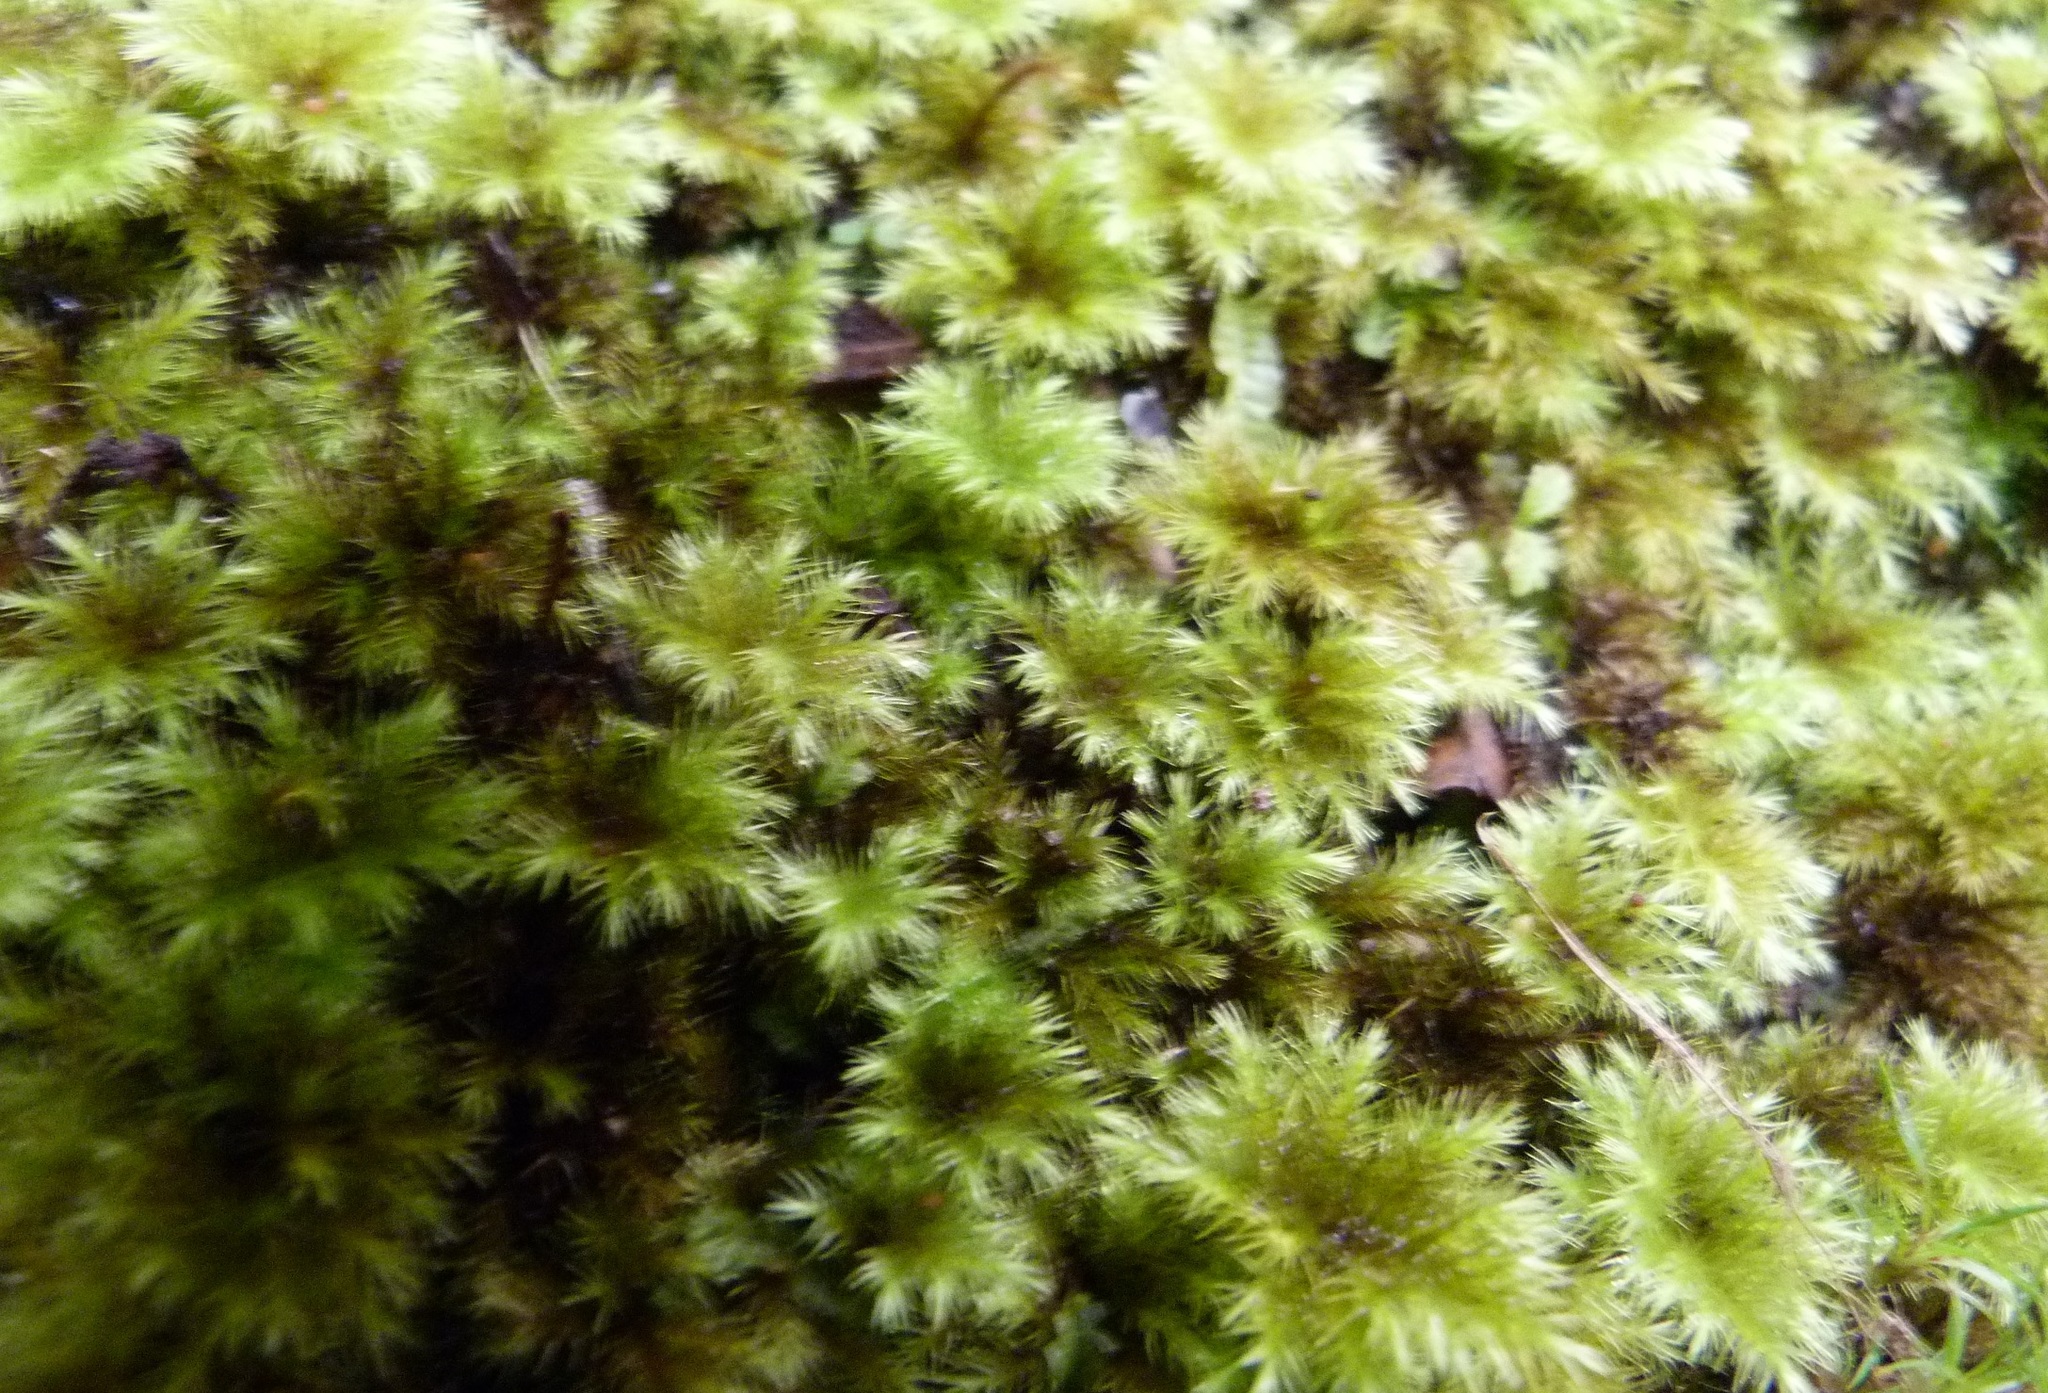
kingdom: Plantae
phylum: Bryophyta
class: Bryopsida
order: Hypnodendrales
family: Spiridentaceae
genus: Mniodendron
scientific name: Mniodendron comosum
